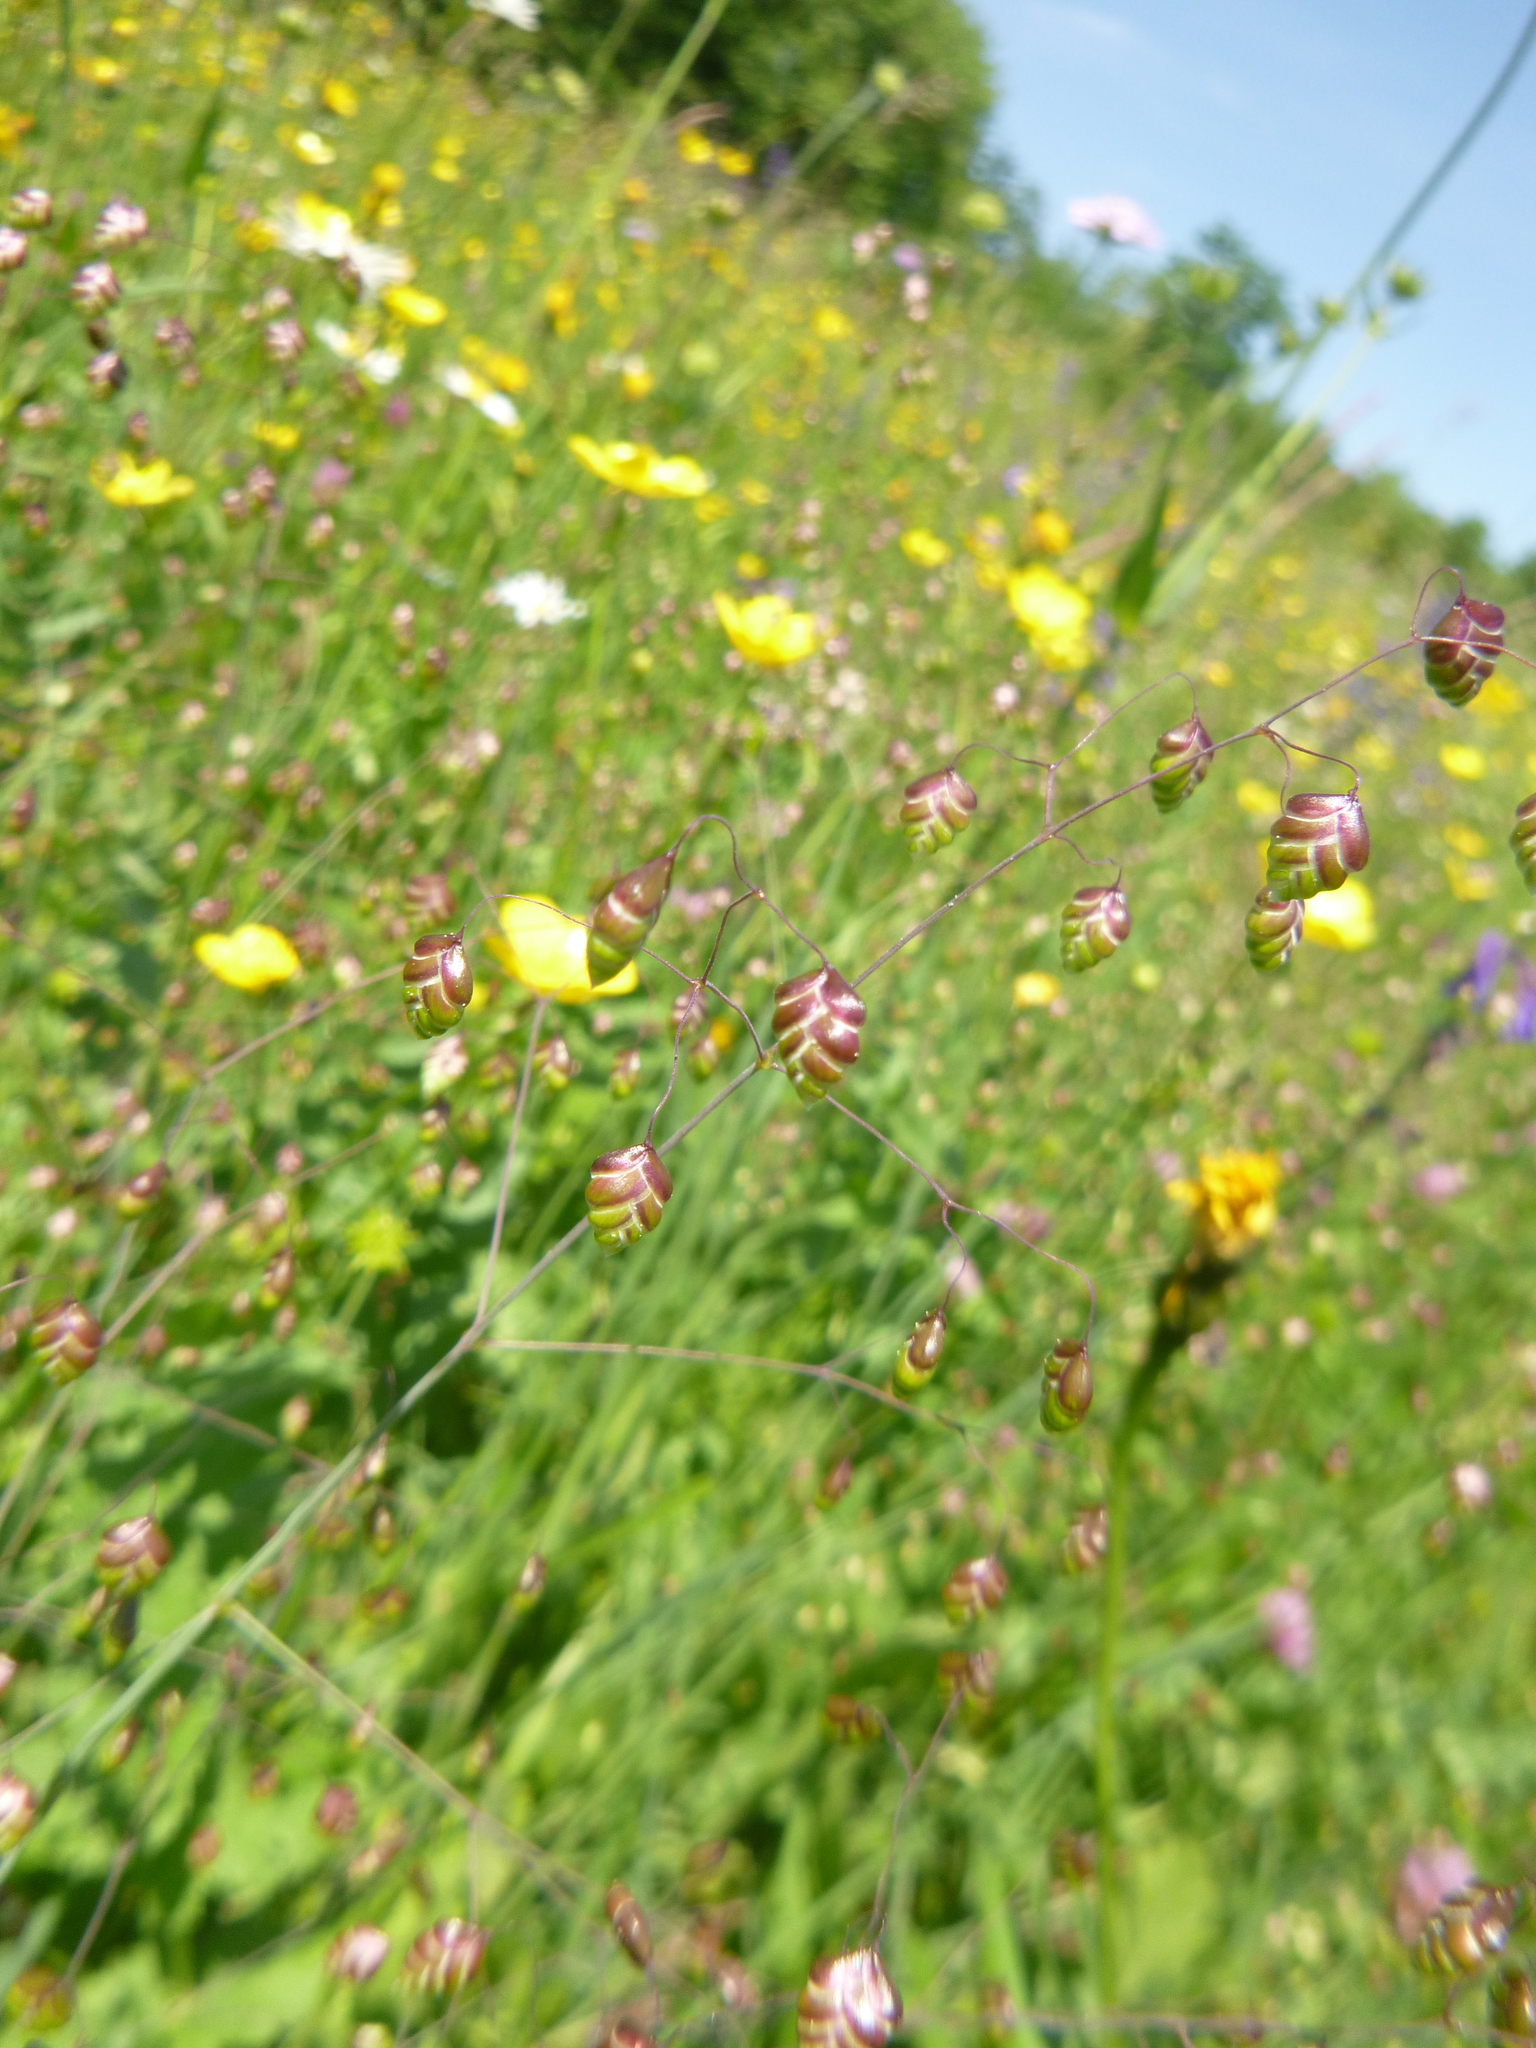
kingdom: Plantae
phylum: Tracheophyta
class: Liliopsida
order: Poales
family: Poaceae
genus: Briza
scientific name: Briza media
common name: Quaking grass
